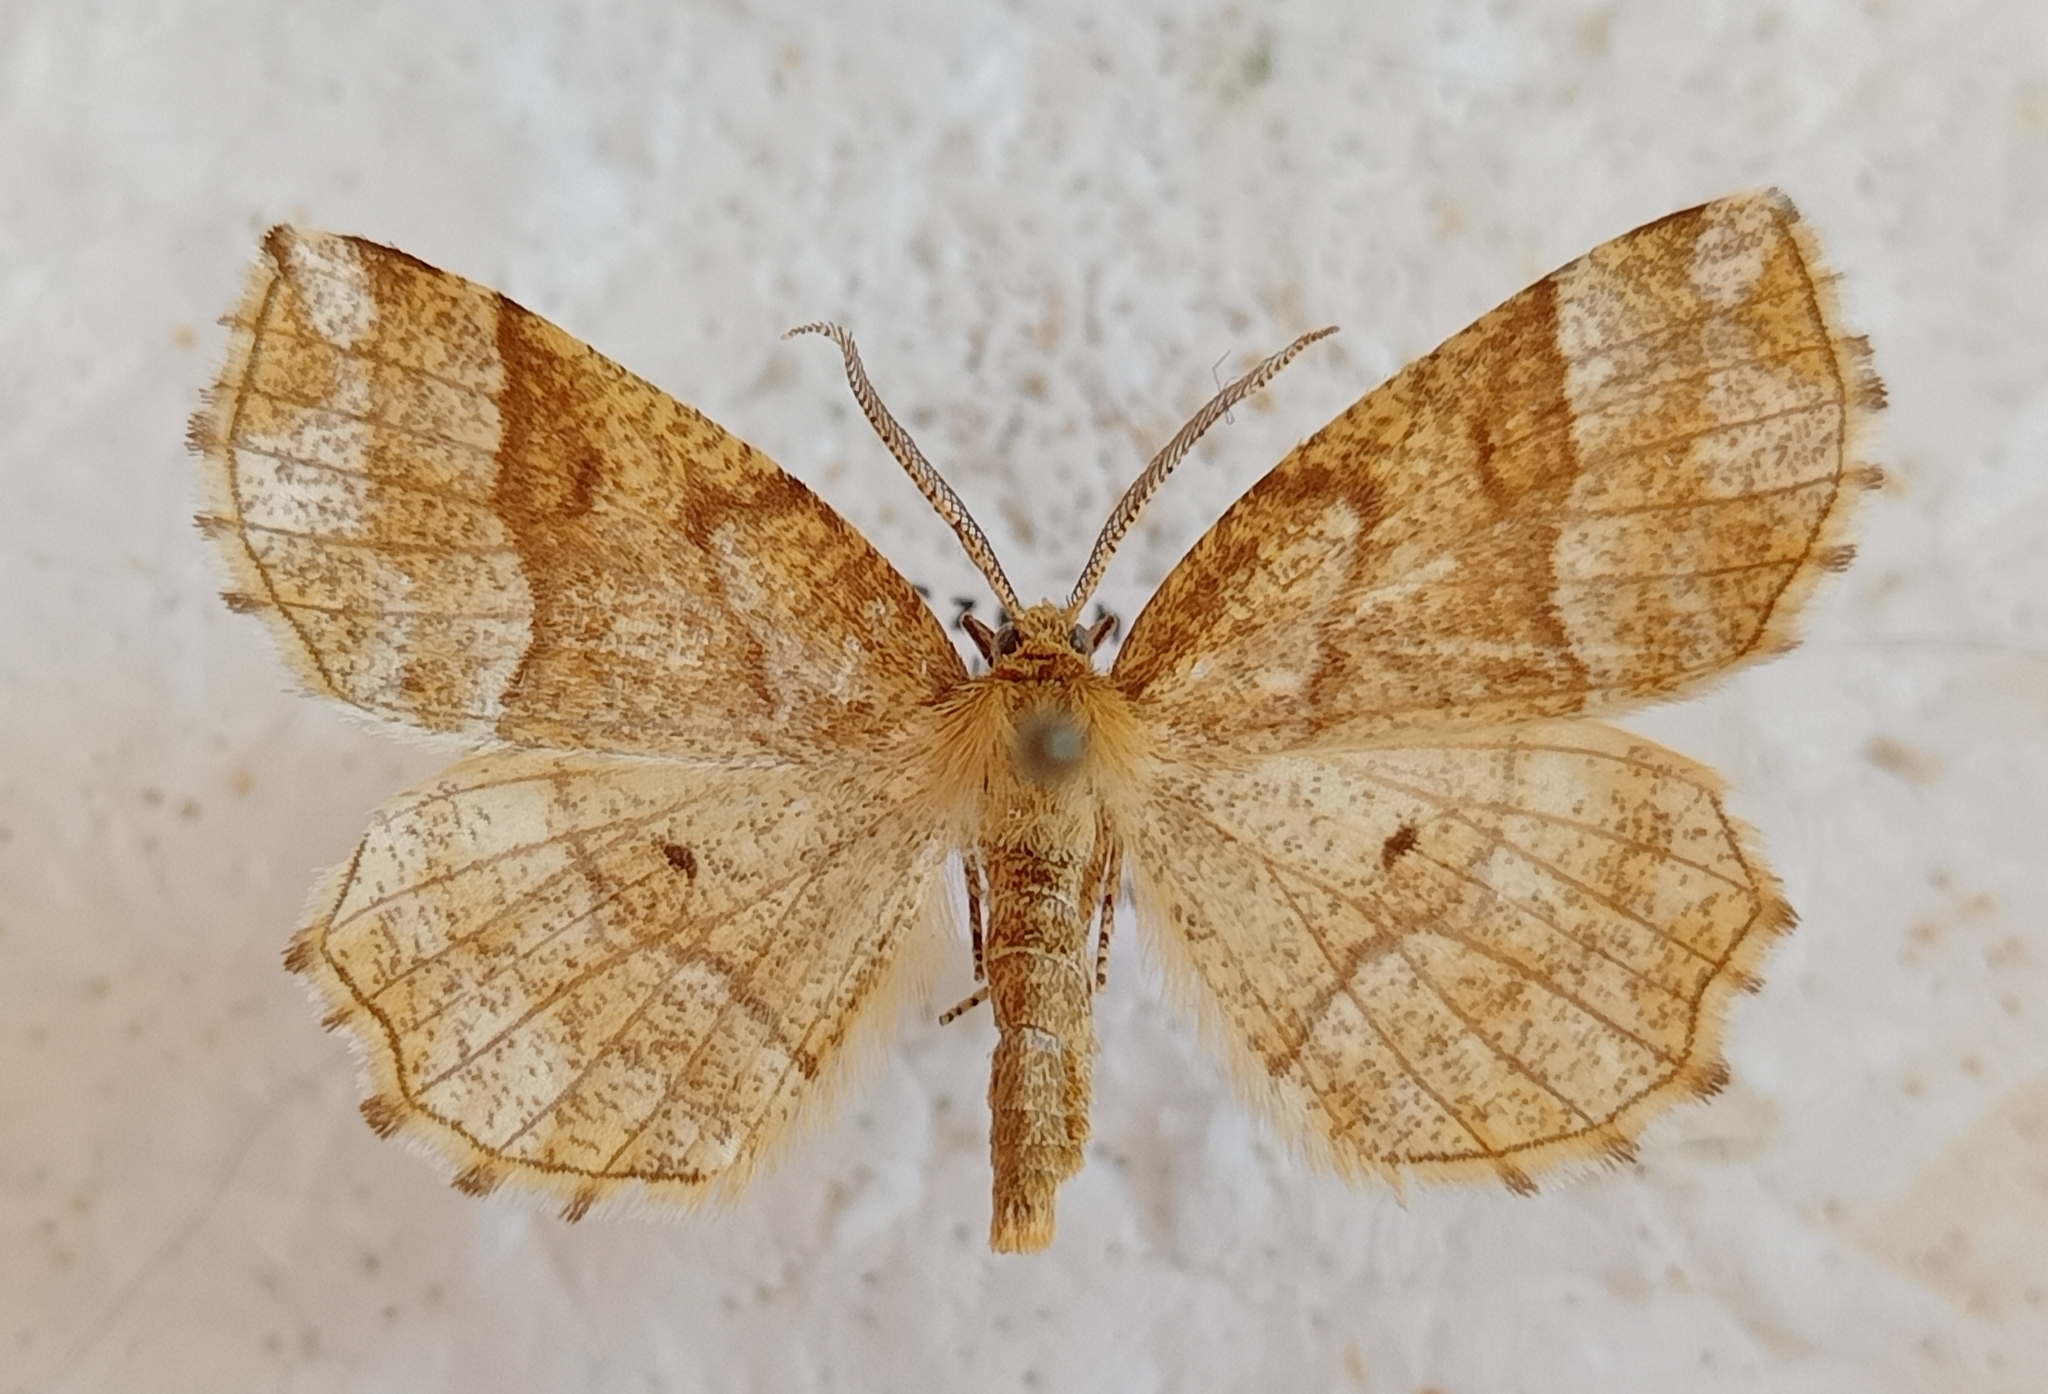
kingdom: Animalia
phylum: Arthropoda
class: Insecta
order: Lepidoptera
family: Geometridae
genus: Cepphis
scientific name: Cepphis advenaria
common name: Little thorn
